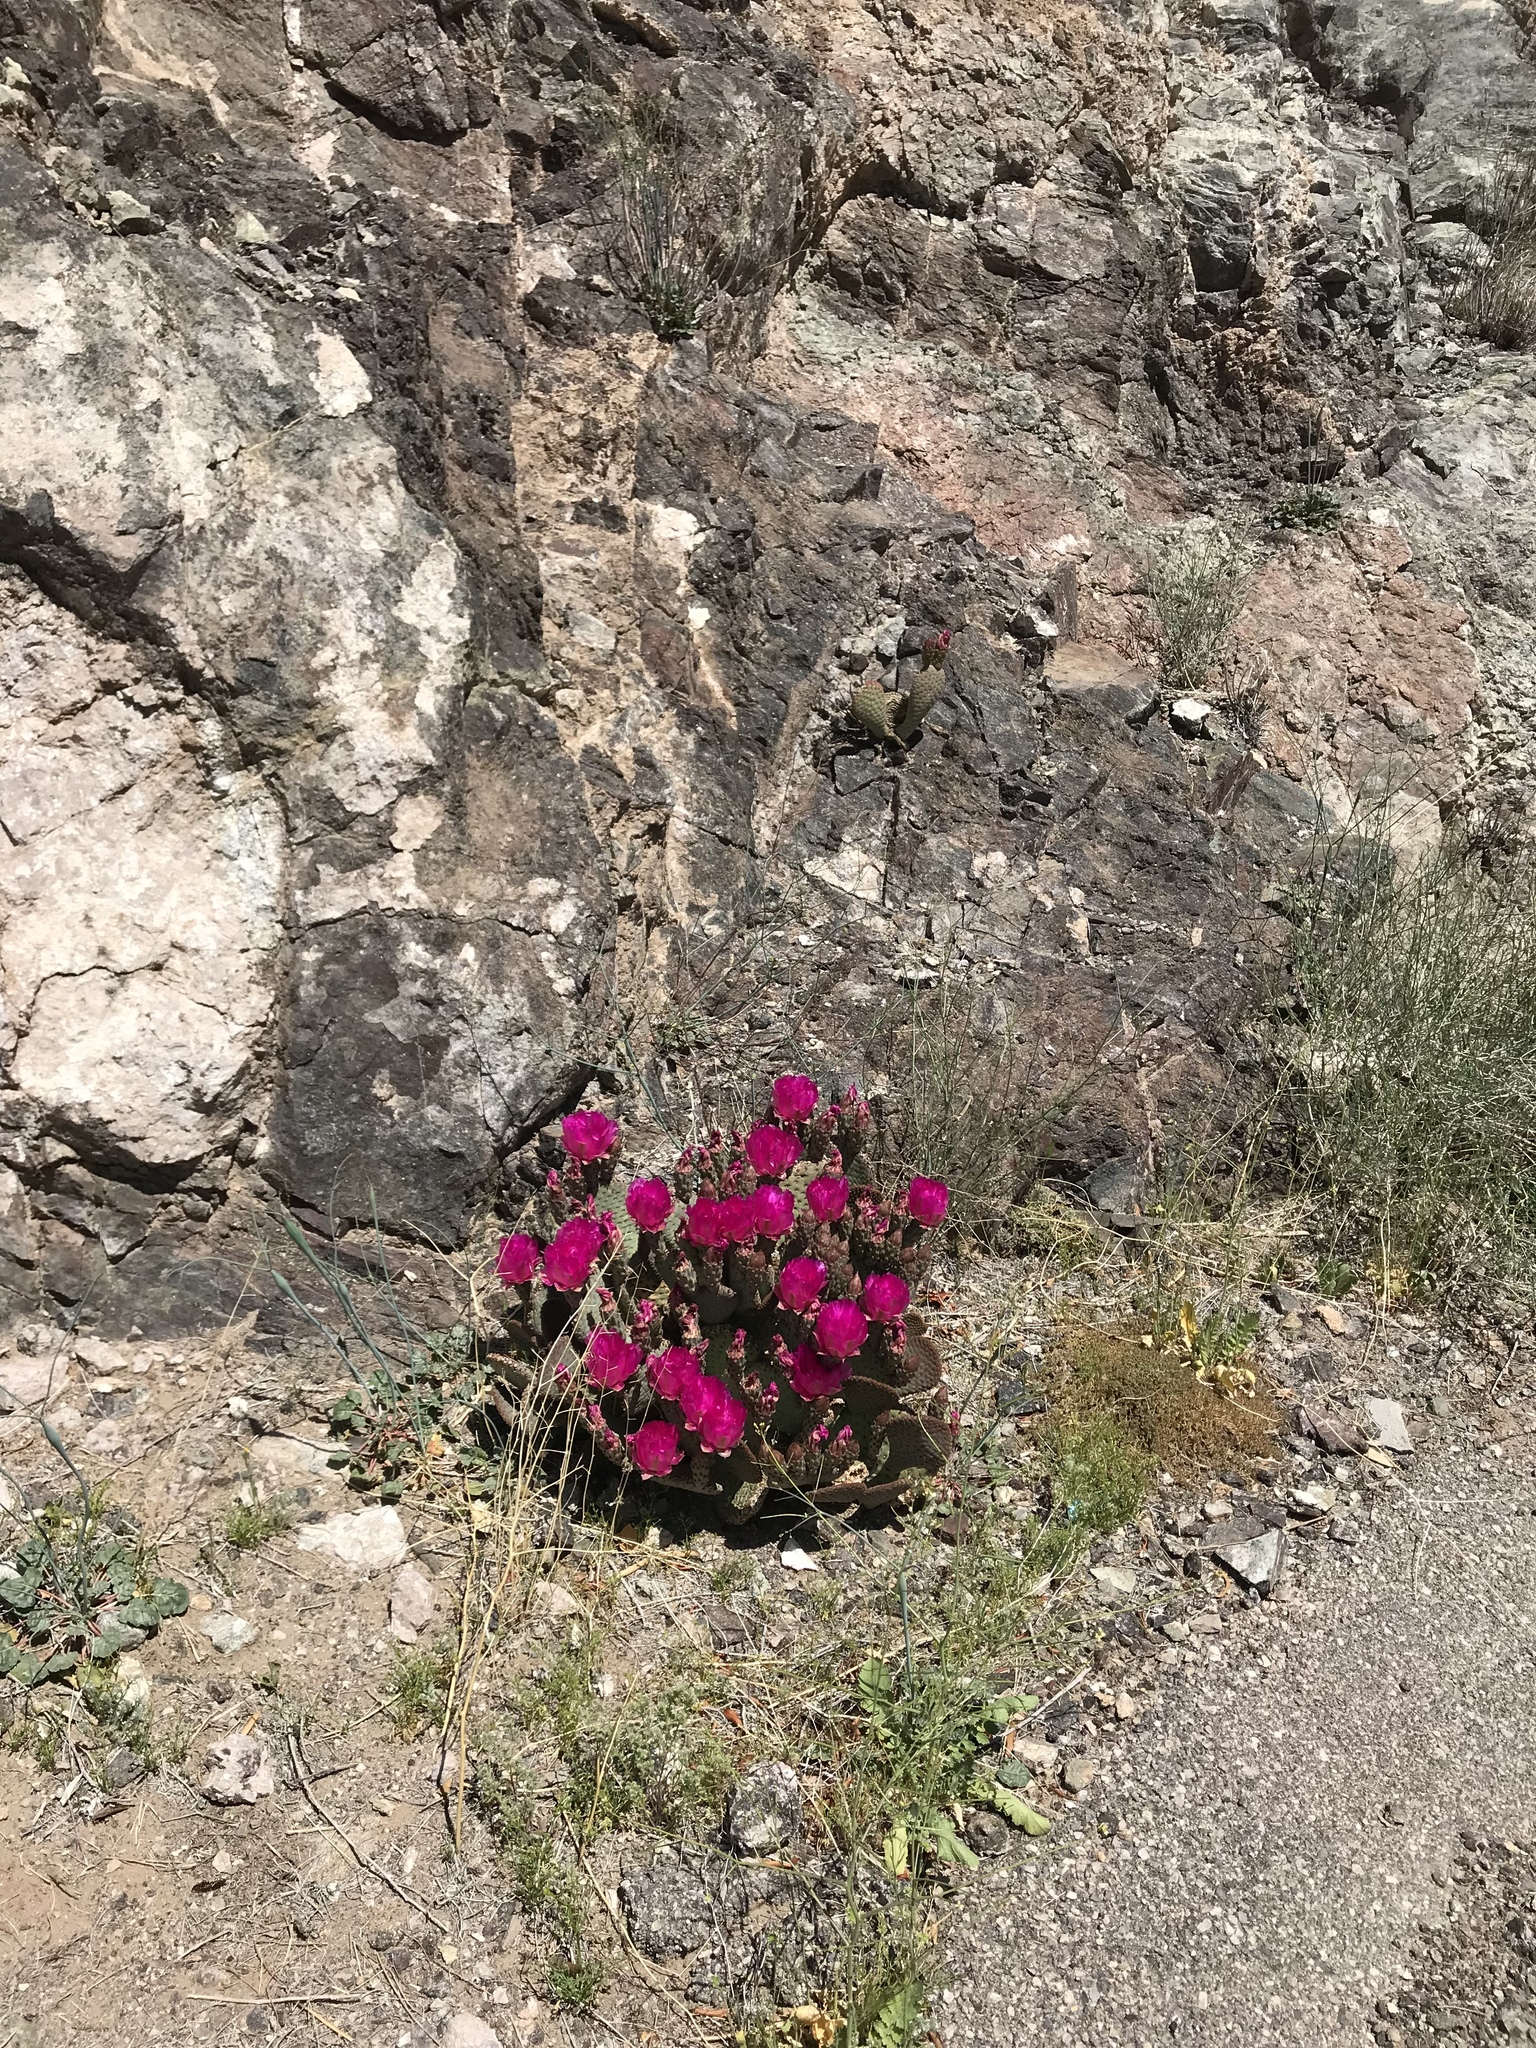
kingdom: Plantae
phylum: Tracheophyta
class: Magnoliopsida
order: Caryophyllales
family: Cactaceae
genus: Opuntia
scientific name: Opuntia basilaris
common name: Beavertail prickly-pear
